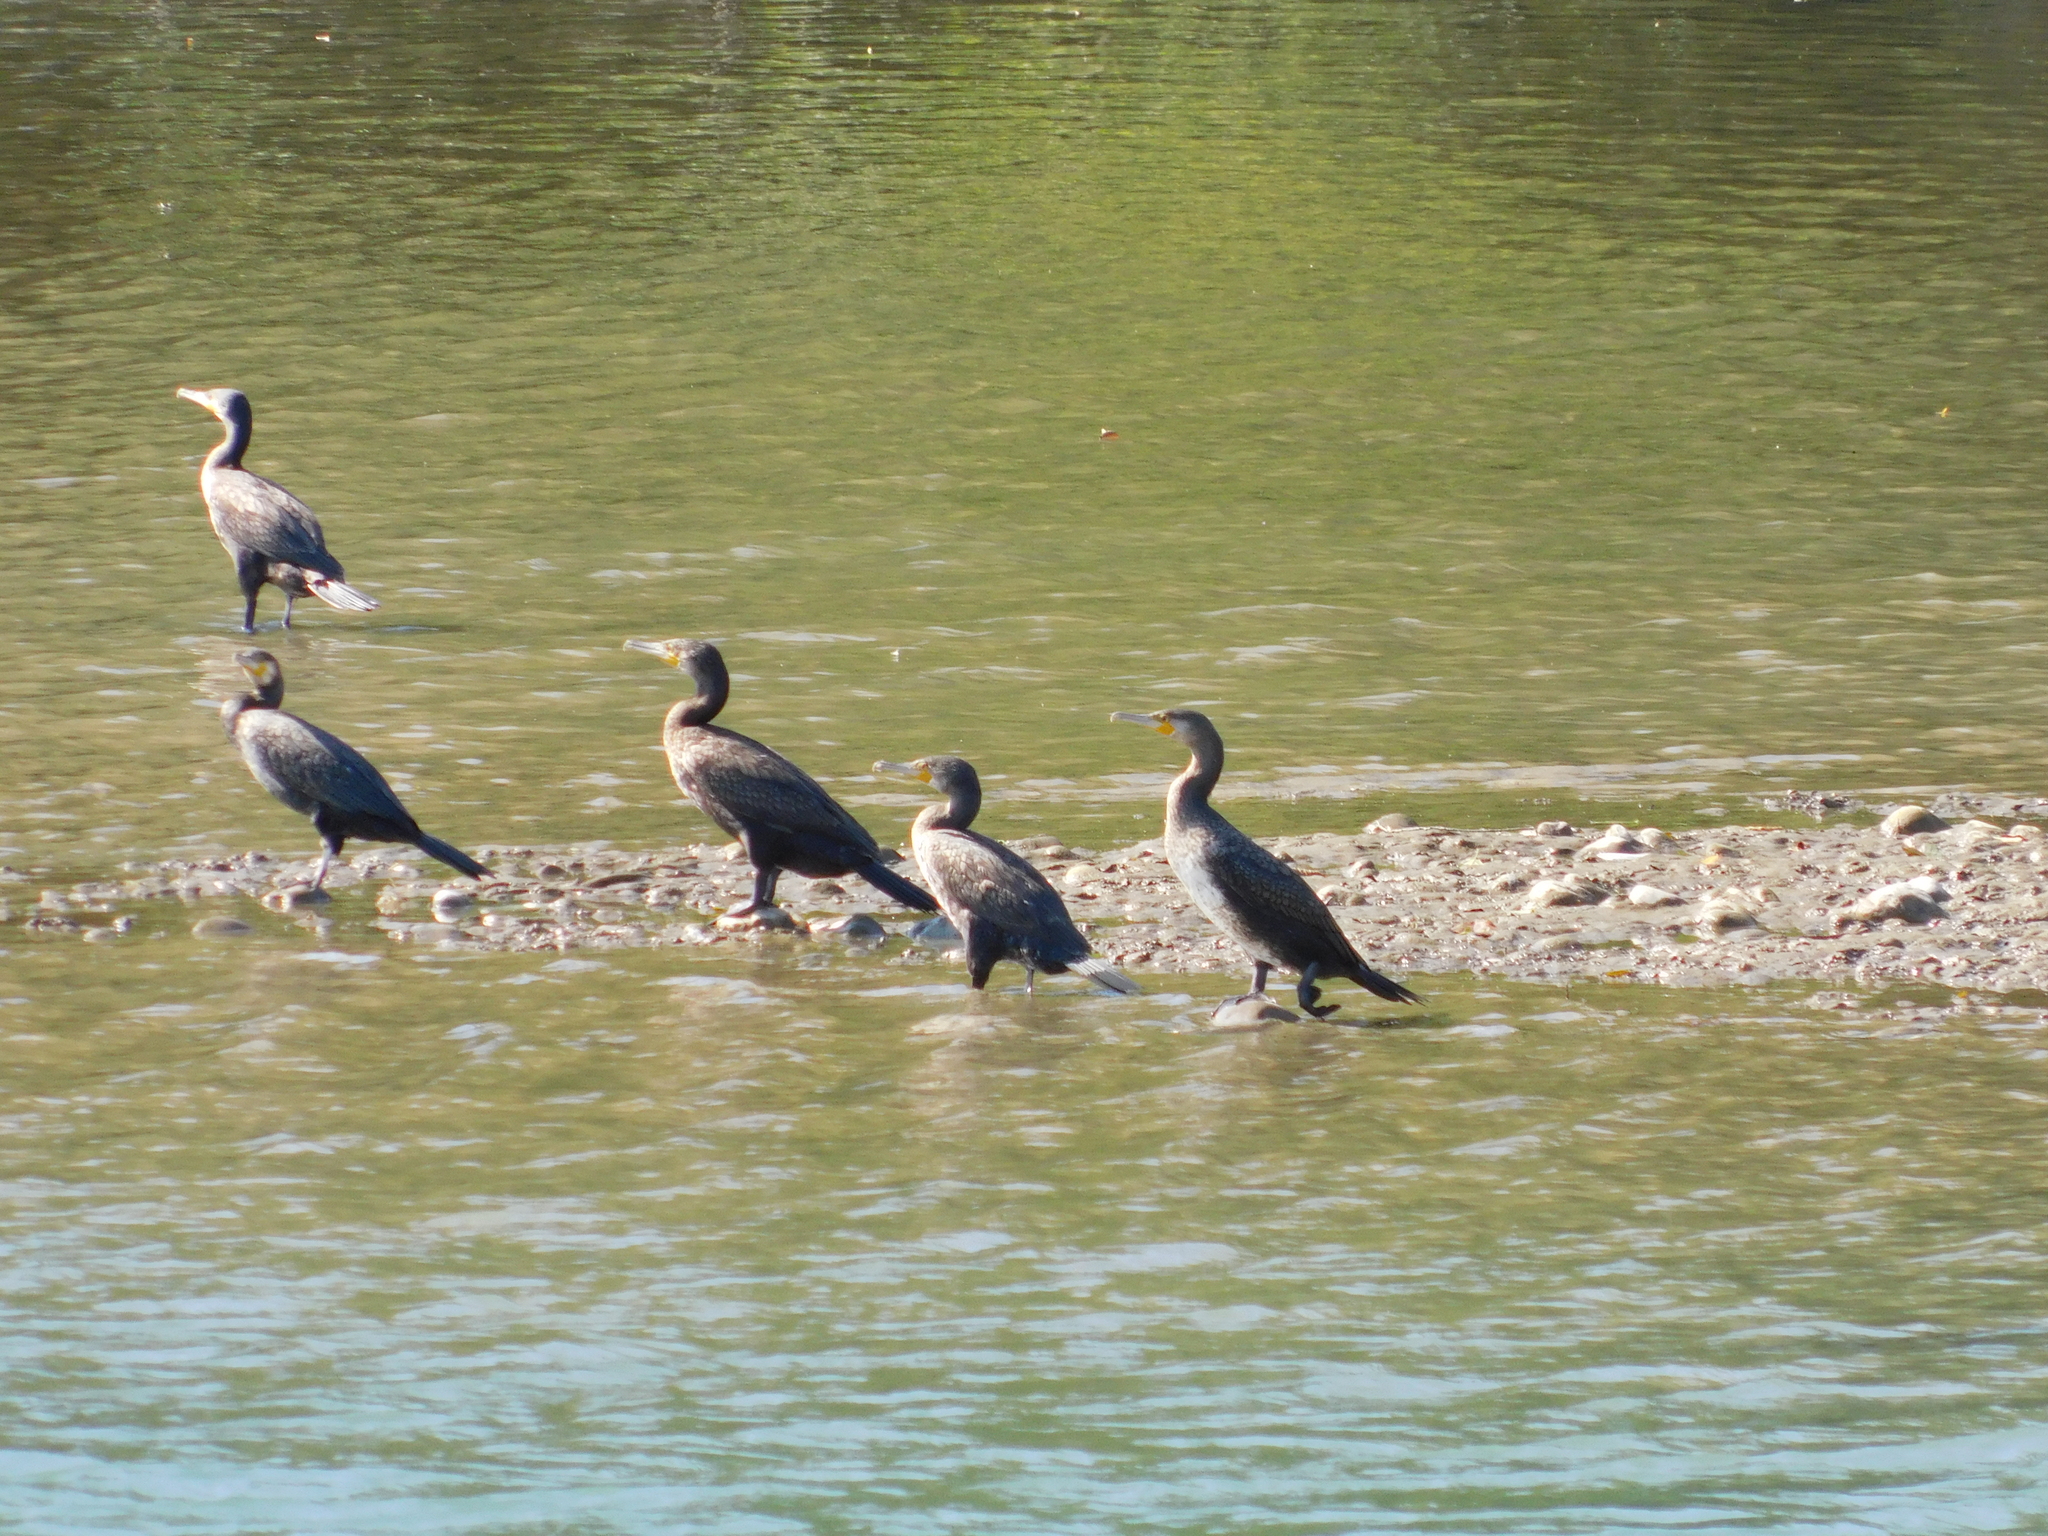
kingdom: Animalia
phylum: Chordata
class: Aves
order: Suliformes
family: Phalacrocoracidae
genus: Phalacrocorax
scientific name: Phalacrocorax carbo
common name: Great cormorant
